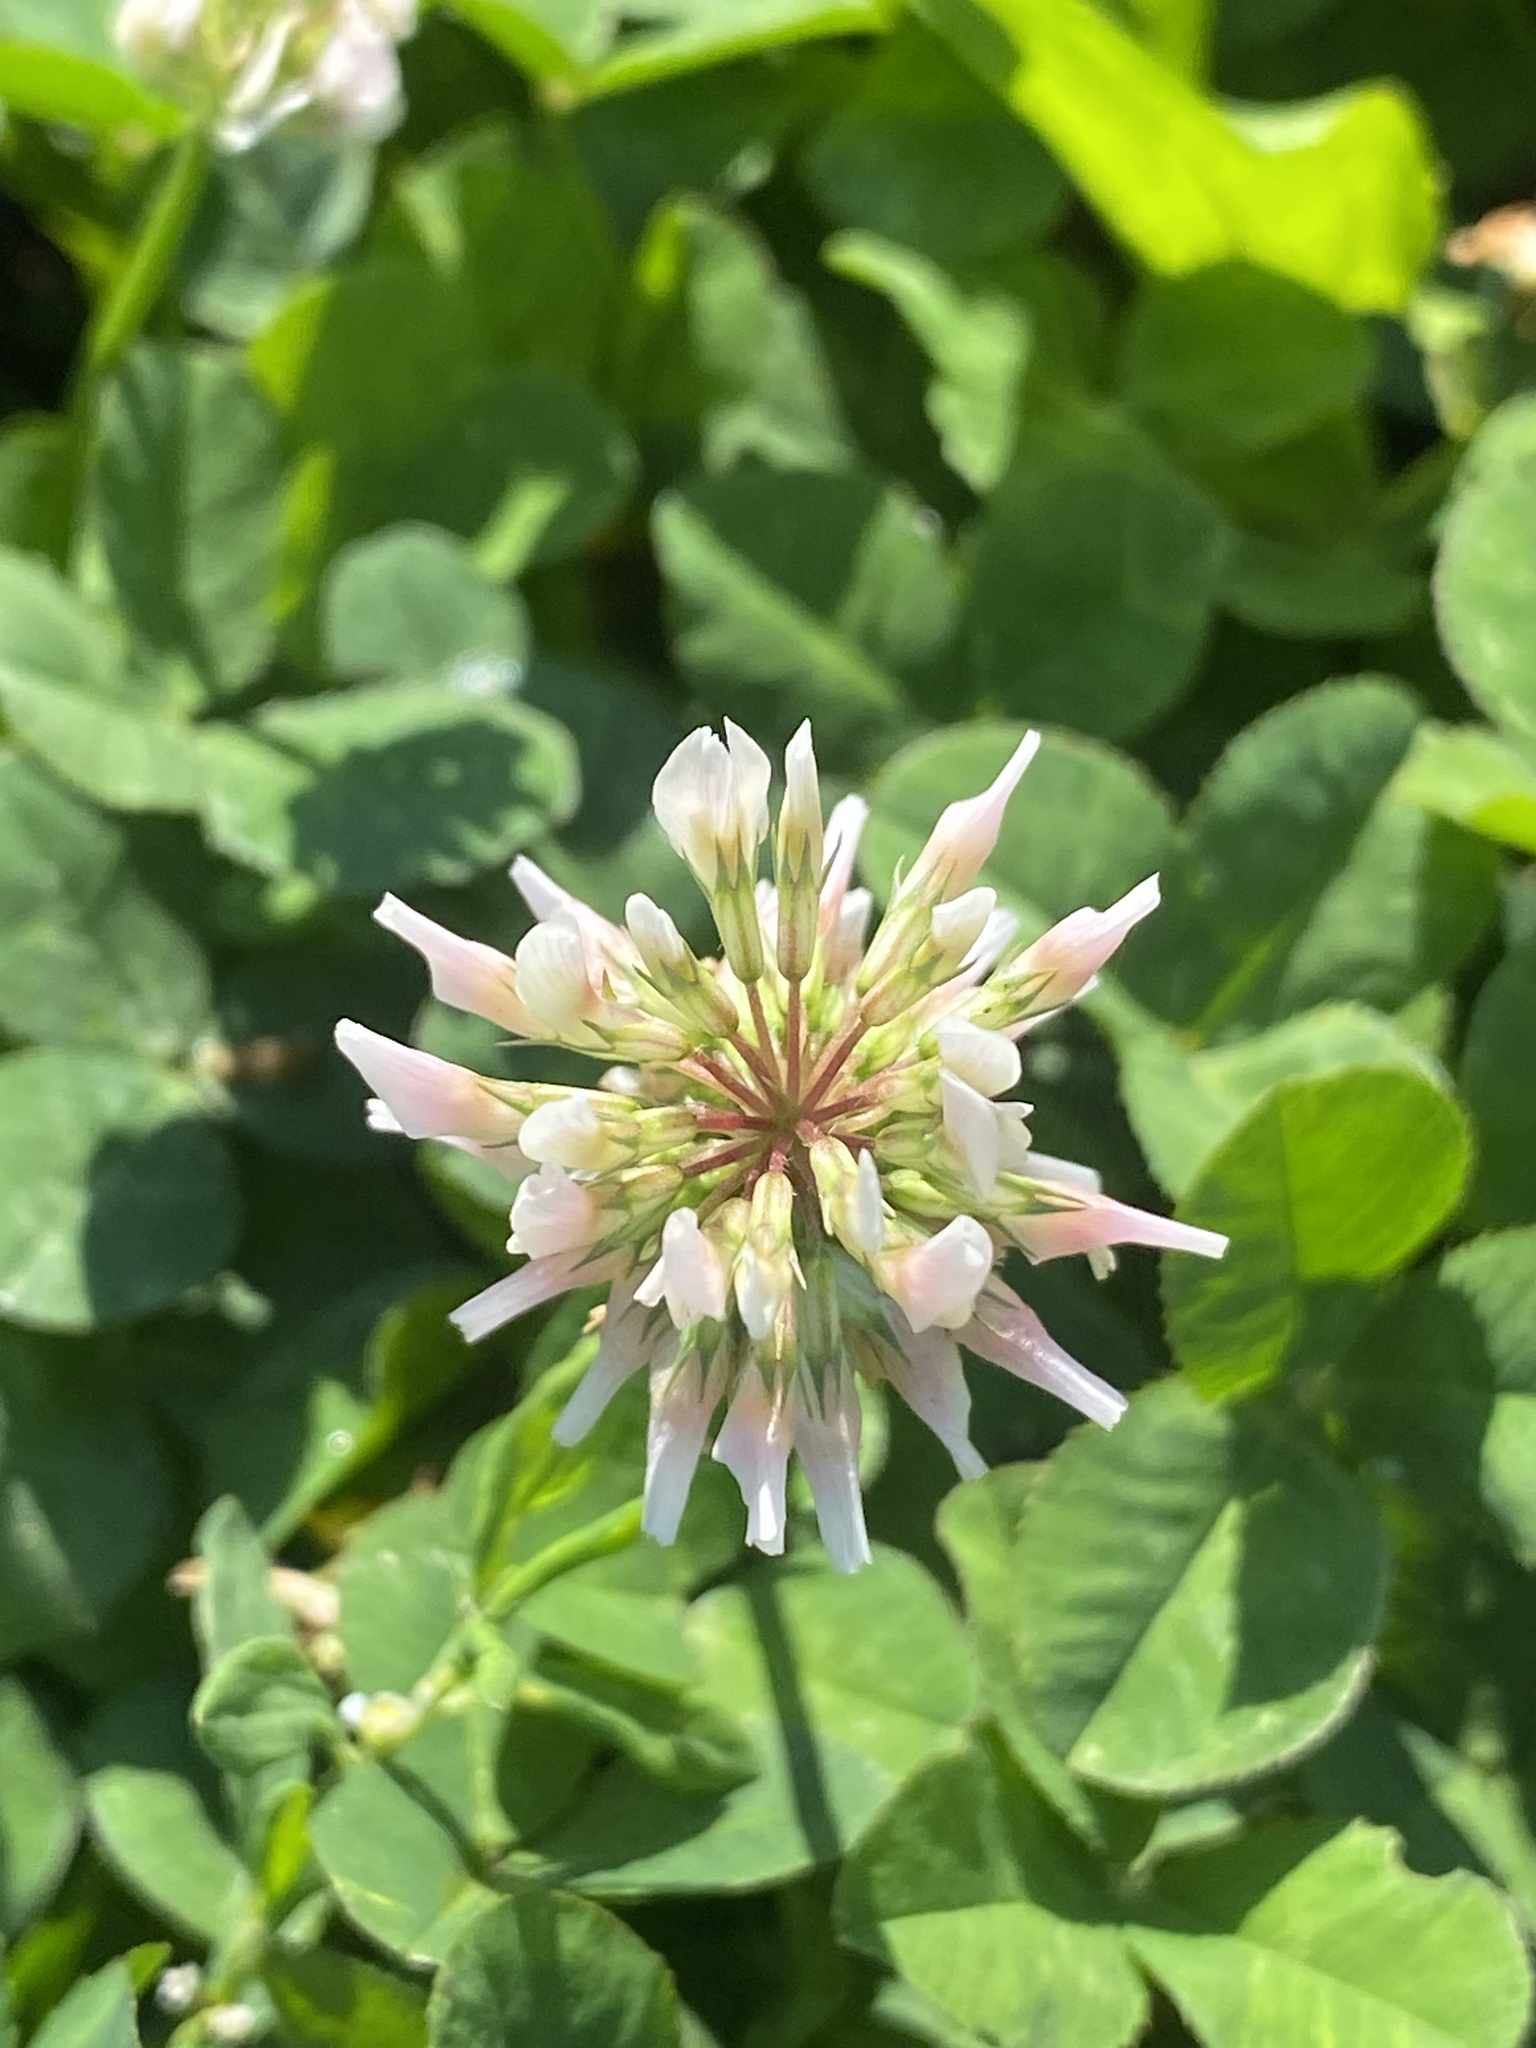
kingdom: Plantae
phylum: Tracheophyta
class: Magnoliopsida
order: Fabales
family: Fabaceae
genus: Trifolium
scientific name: Trifolium repens
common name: White clover
